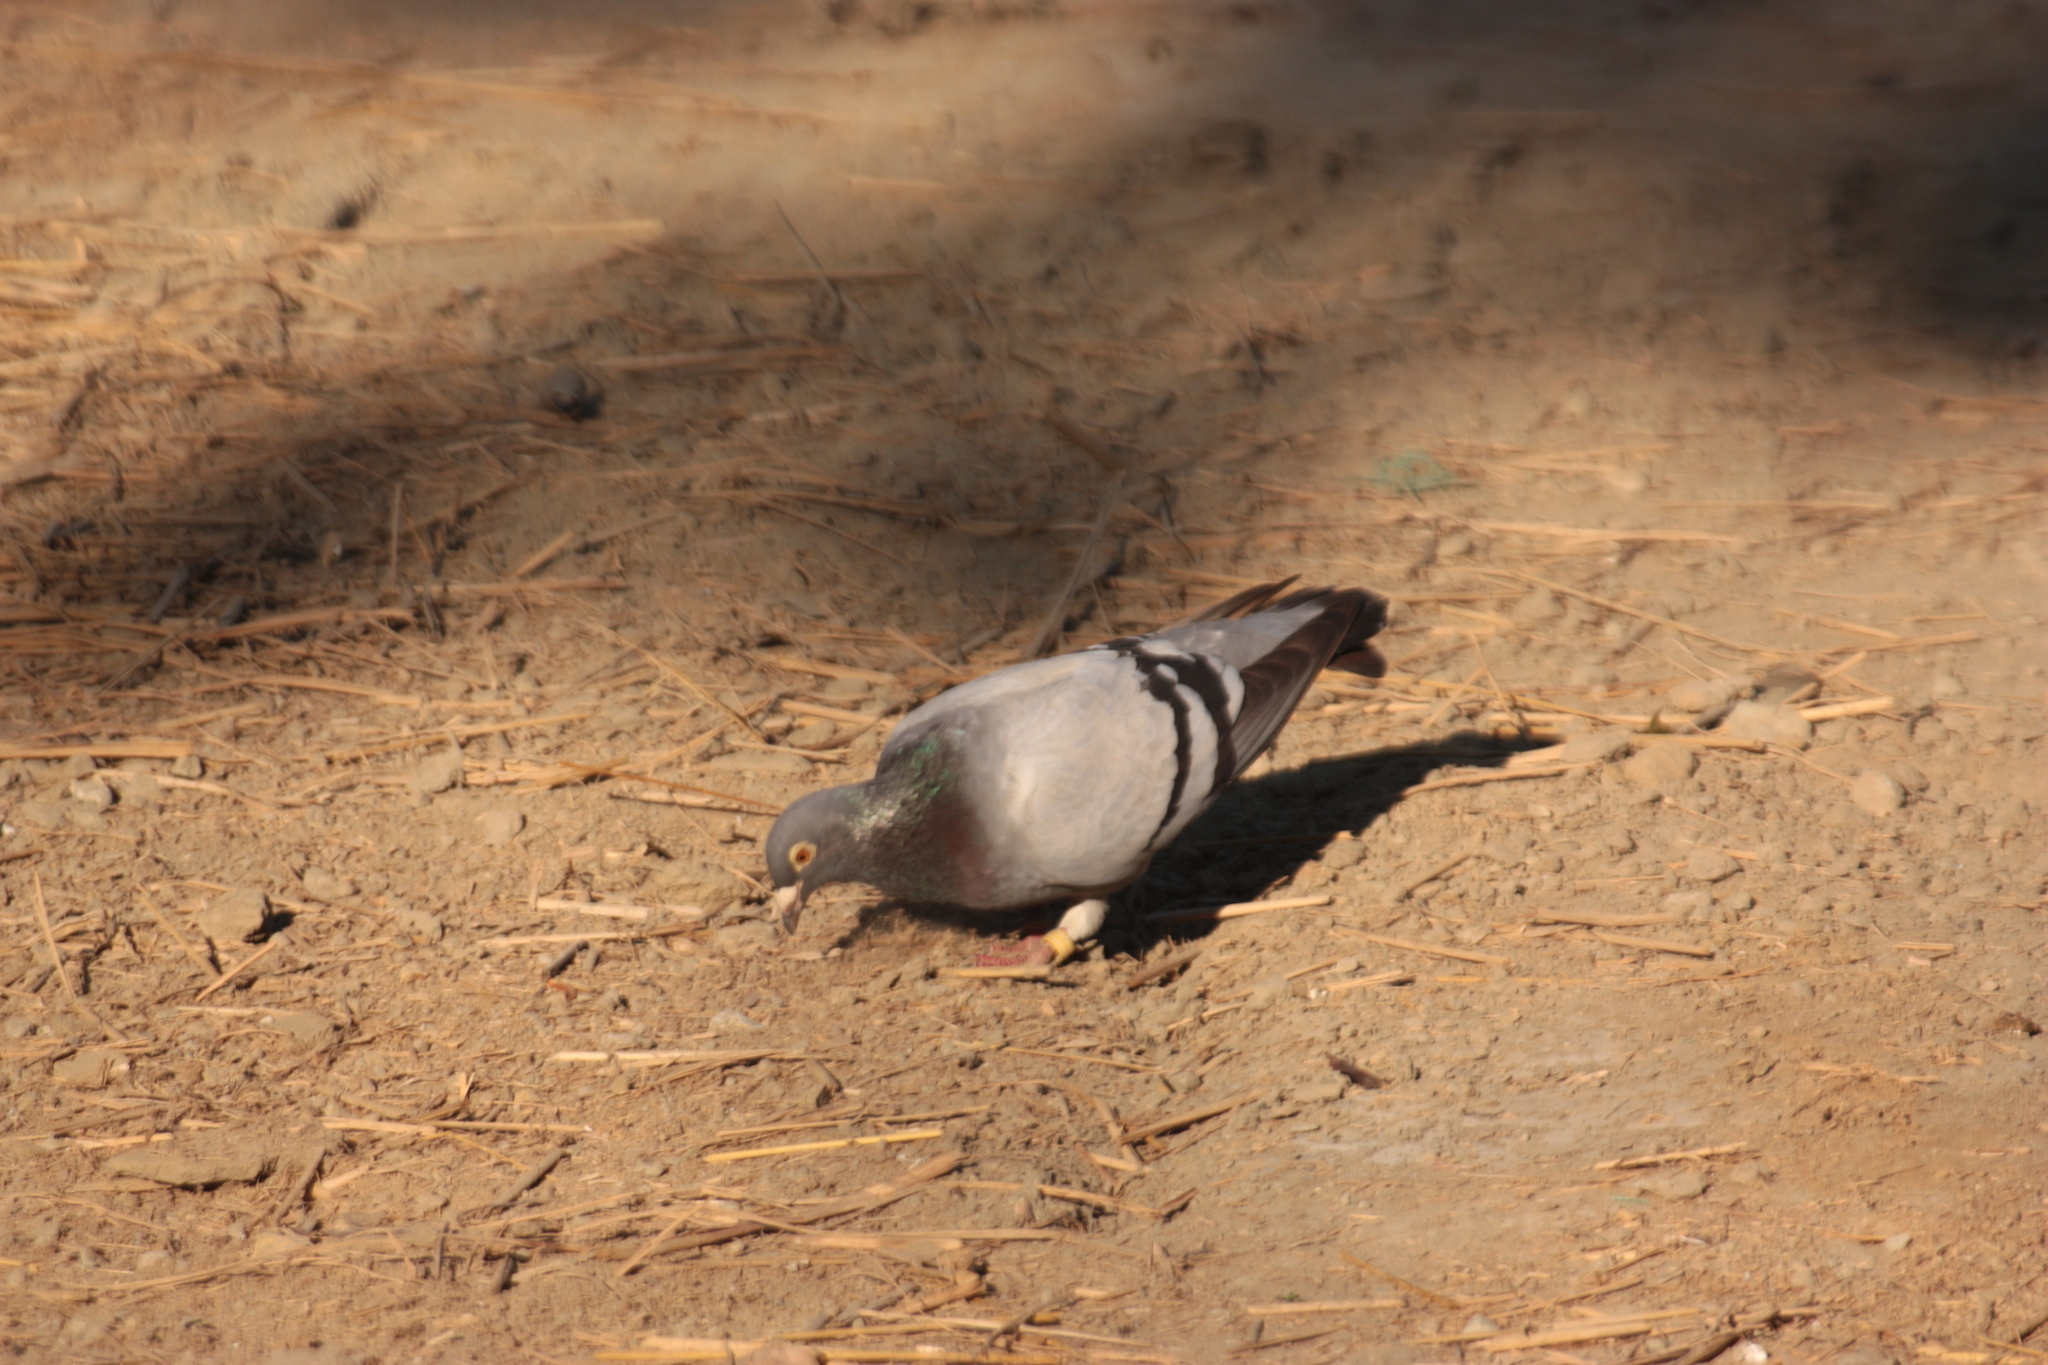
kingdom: Animalia
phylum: Chordata
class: Aves
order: Columbiformes
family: Columbidae
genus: Columba
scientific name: Columba livia
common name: Rock pigeon
